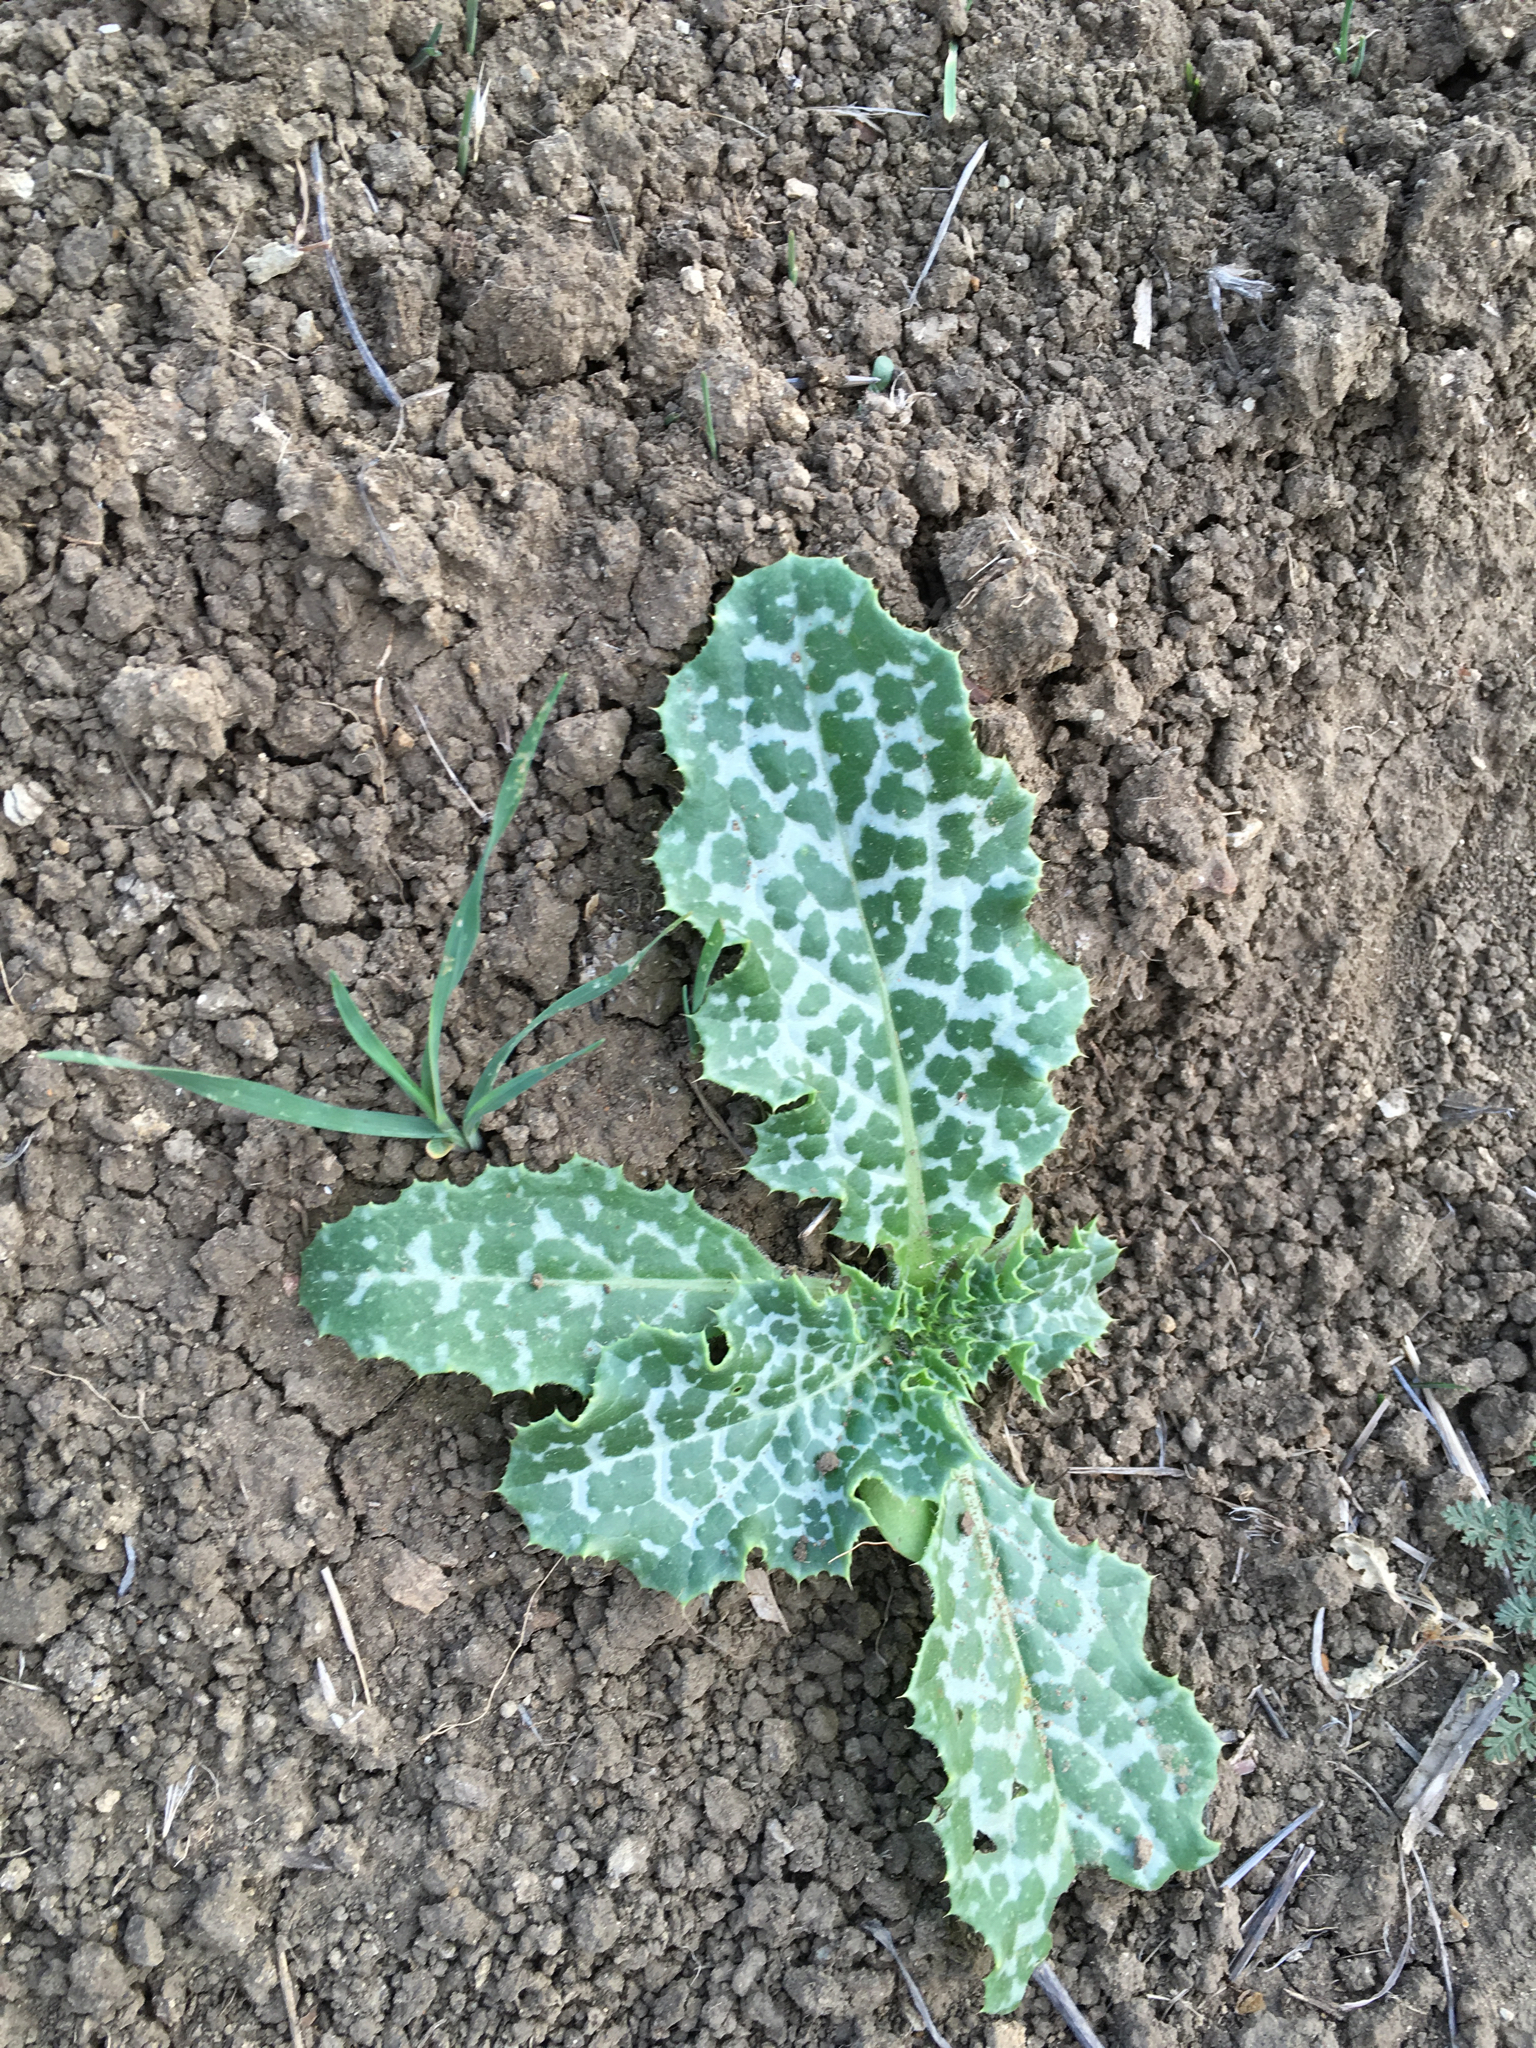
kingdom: Plantae
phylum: Tracheophyta
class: Magnoliopsida
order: Asterales
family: Asteraceae
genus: Silybum
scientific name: Silybum marianum
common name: Milk thistle
